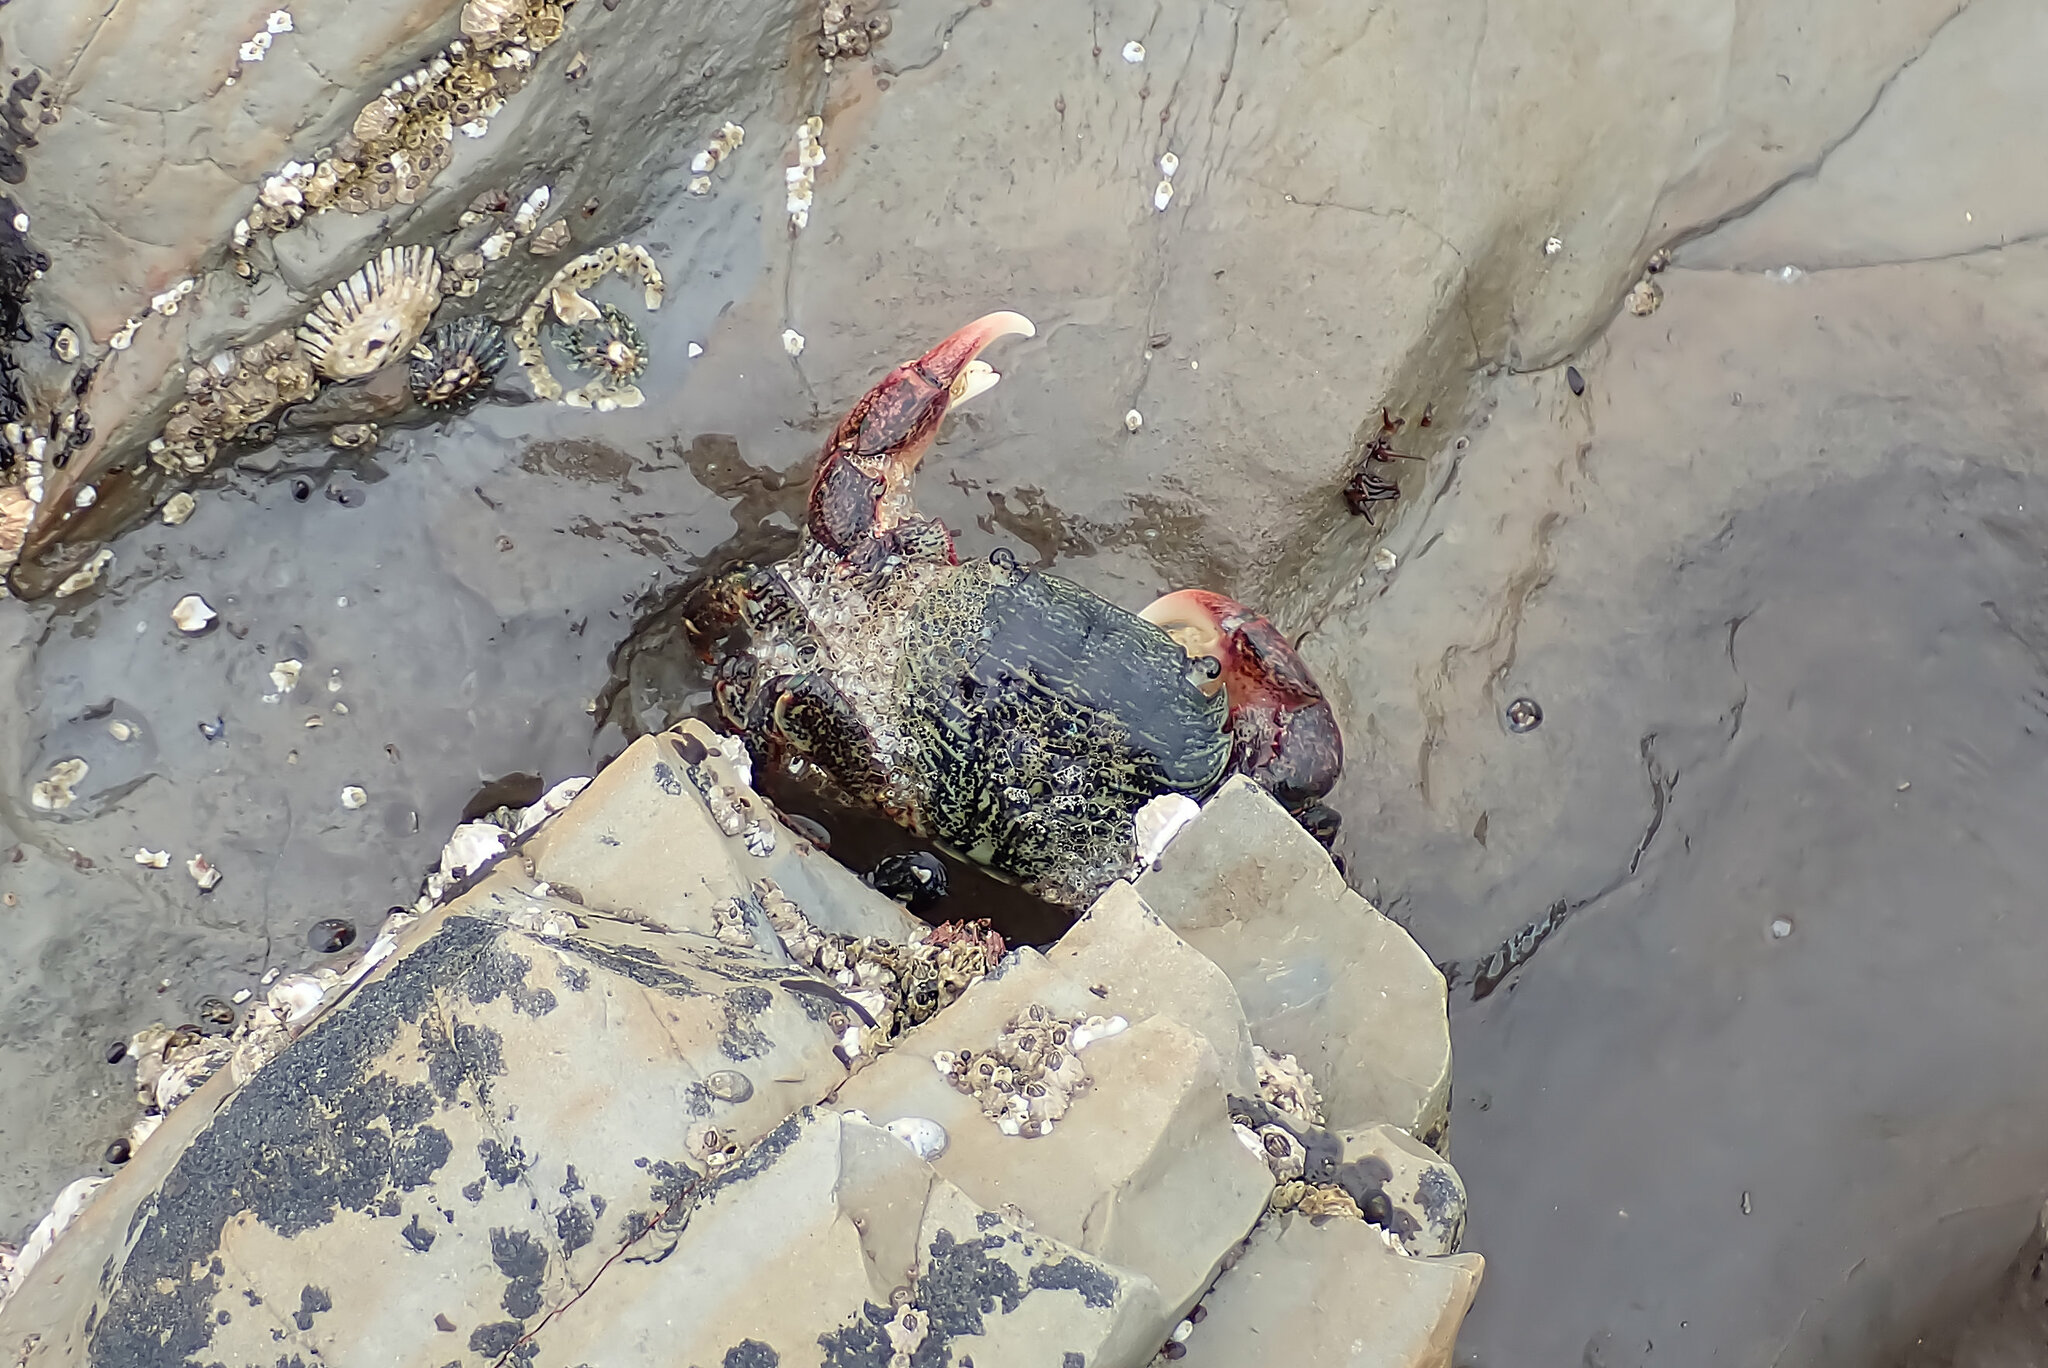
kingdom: Animalia
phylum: Arthropoda
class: Malacostraca
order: Decapoda
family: Grapsidae
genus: Pachygrapsus
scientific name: Pachygrapsus crassipes
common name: Striped shore crab
